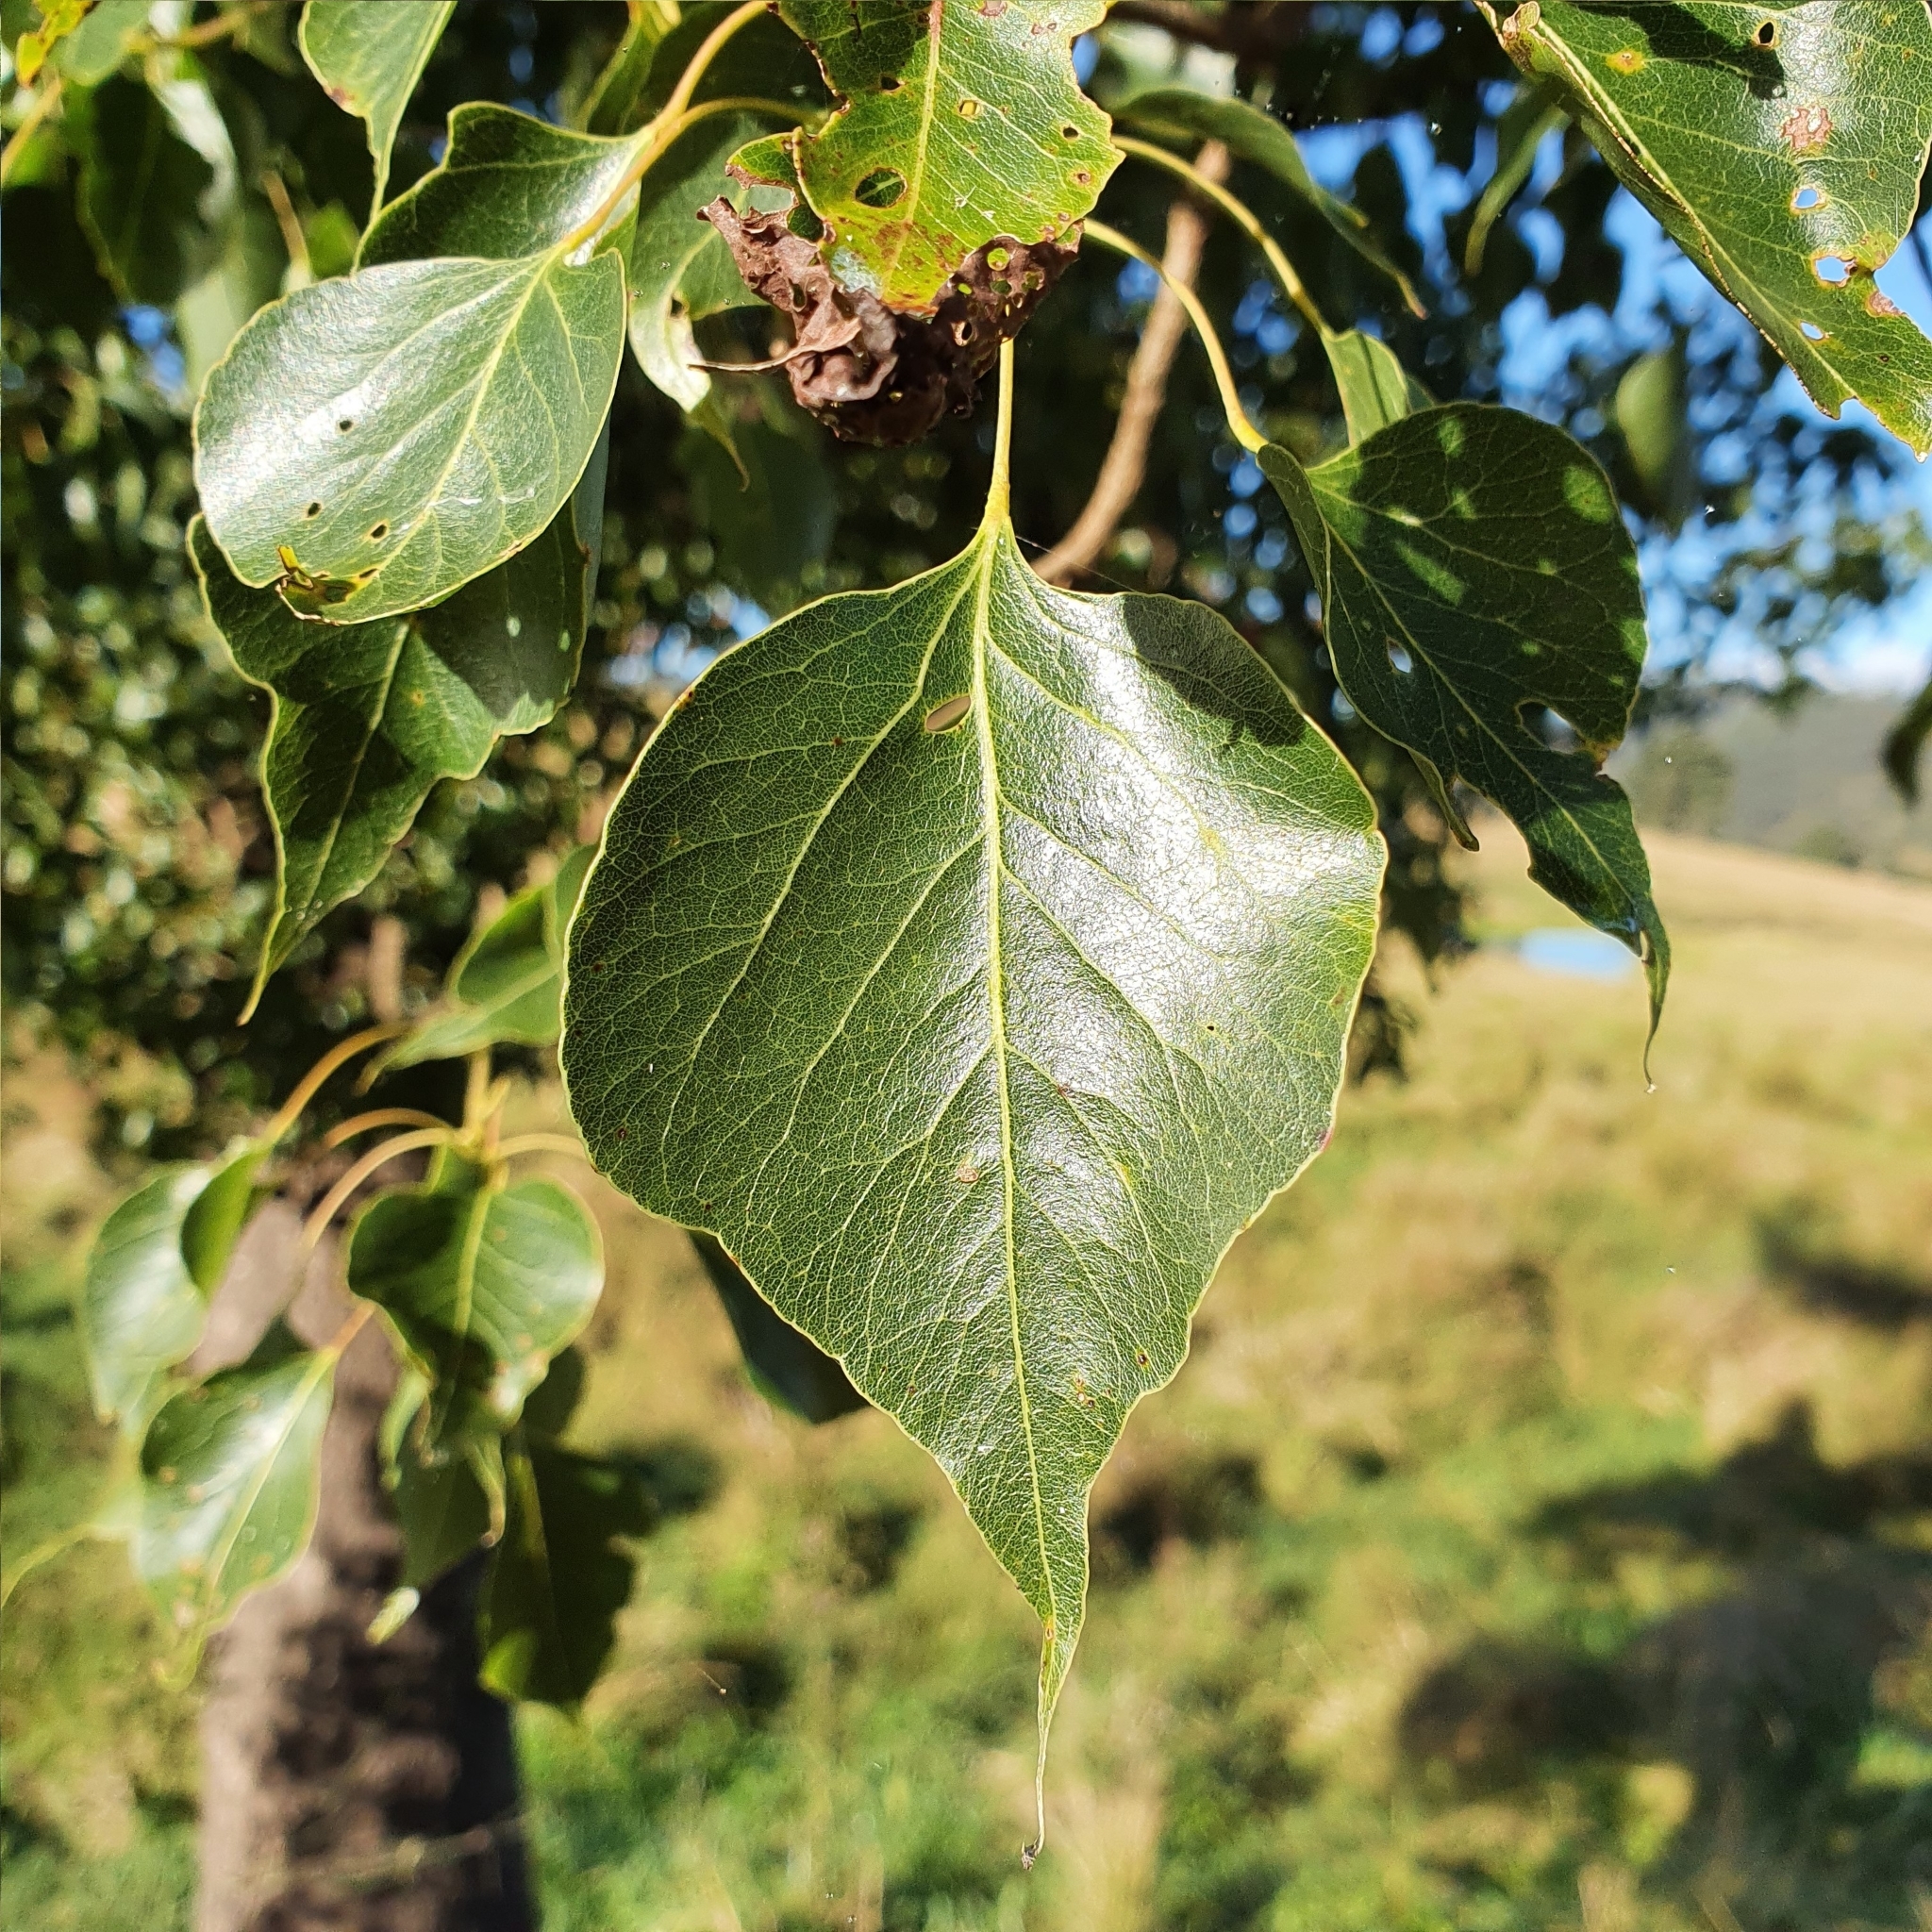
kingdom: Plantae
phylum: Tracheophyta
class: Magnoliopsida
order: Malvales
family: Malvaceae
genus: Brachychiton
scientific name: Brachychiton populneus
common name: Kurrajong
